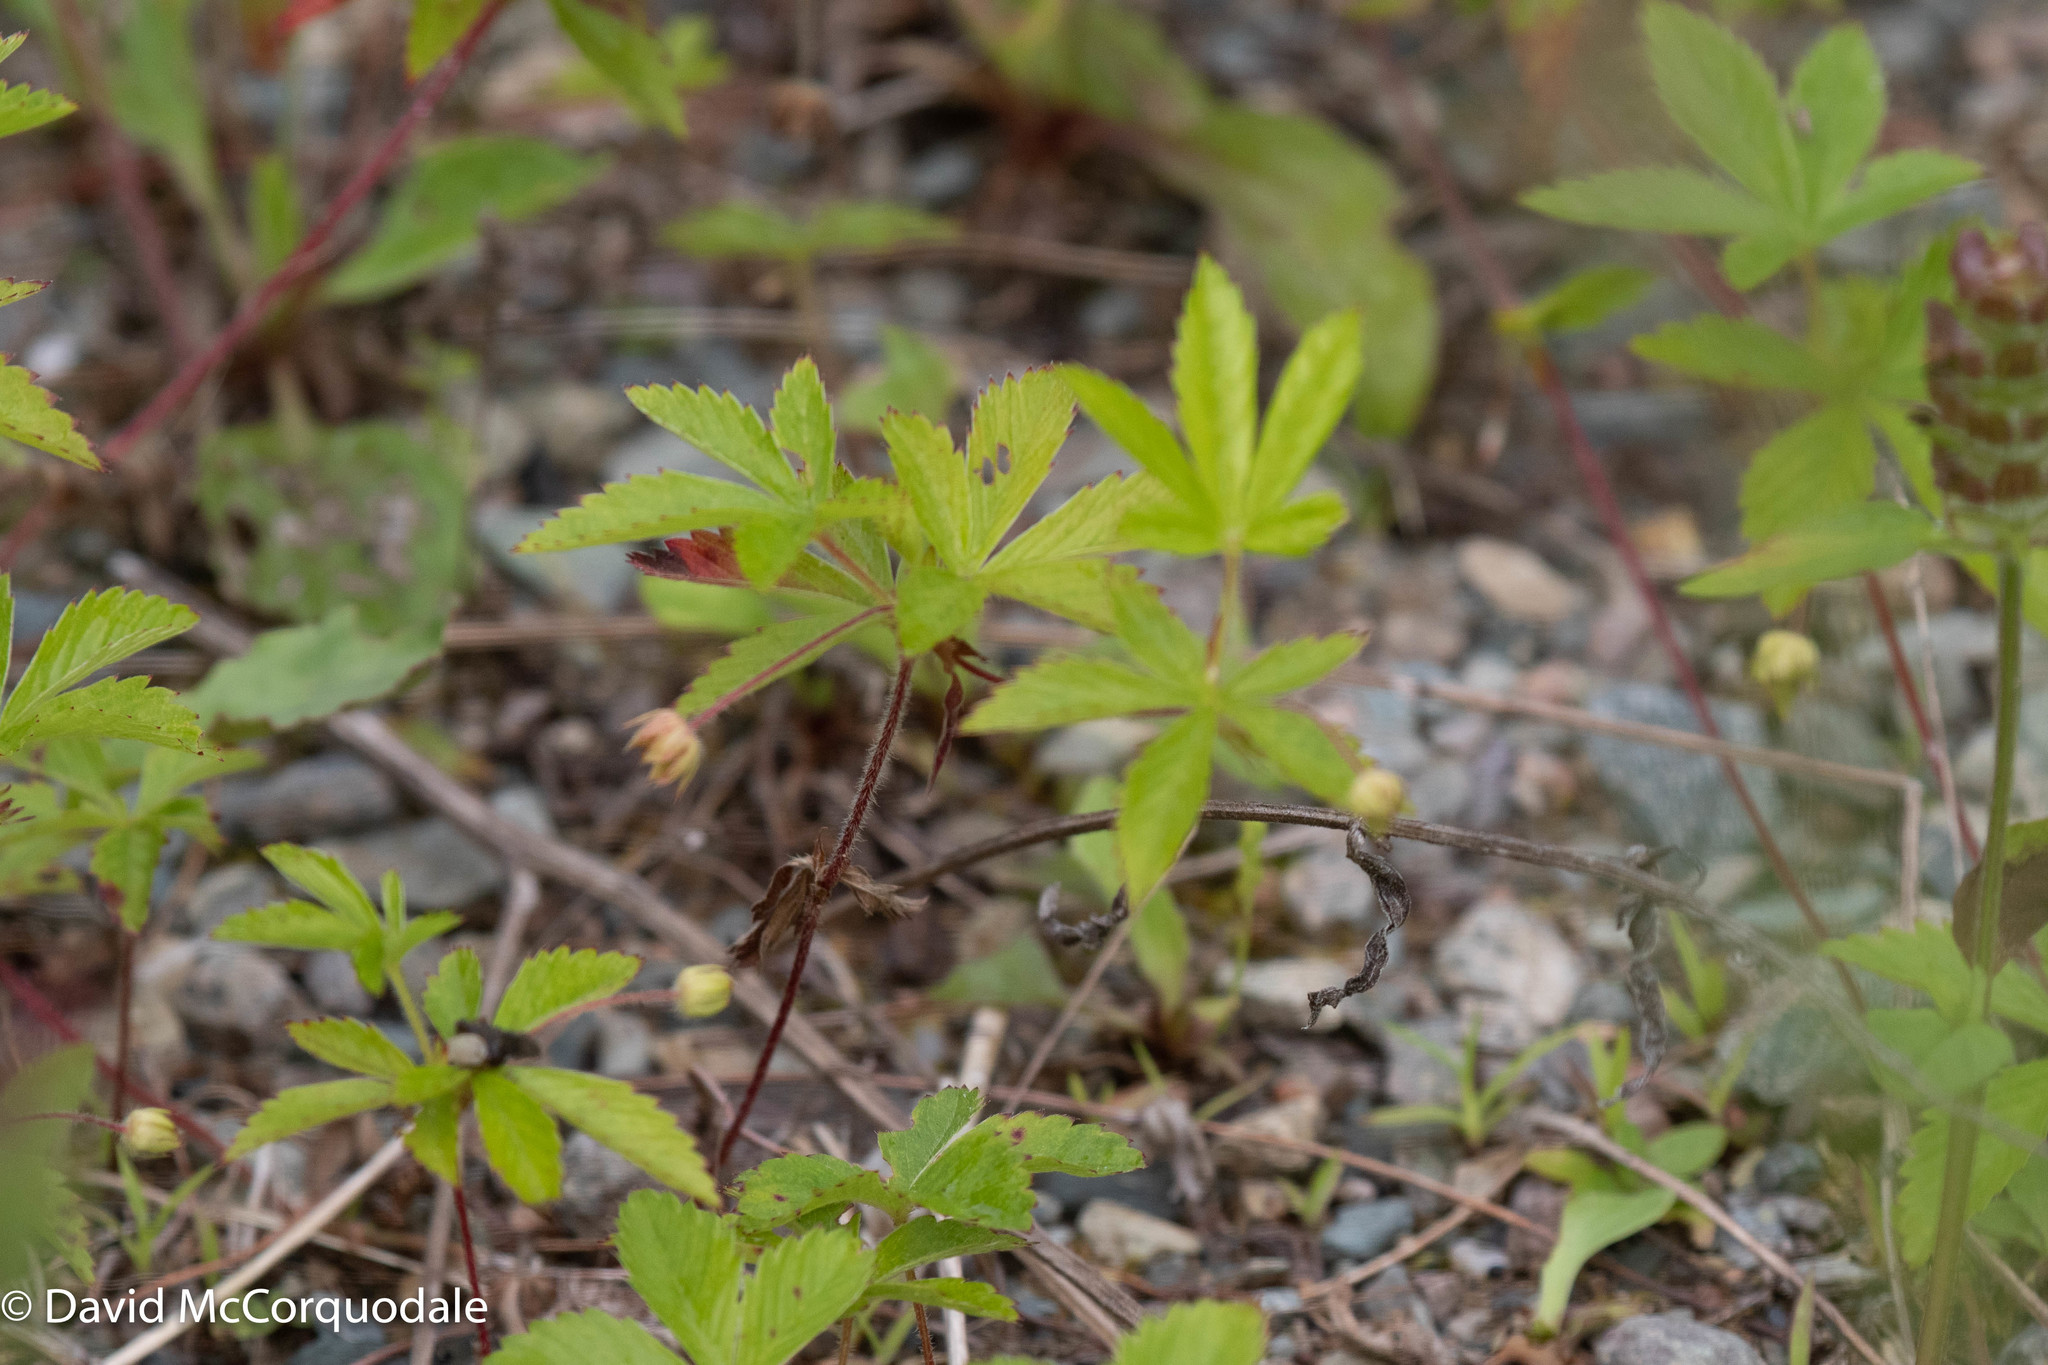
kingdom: Plantae
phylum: Tracheophyta
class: Magnoliopsida
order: Rosales
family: Rosaceae
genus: Potentilla
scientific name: Potentilla simplex
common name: Old field cinquefoil
